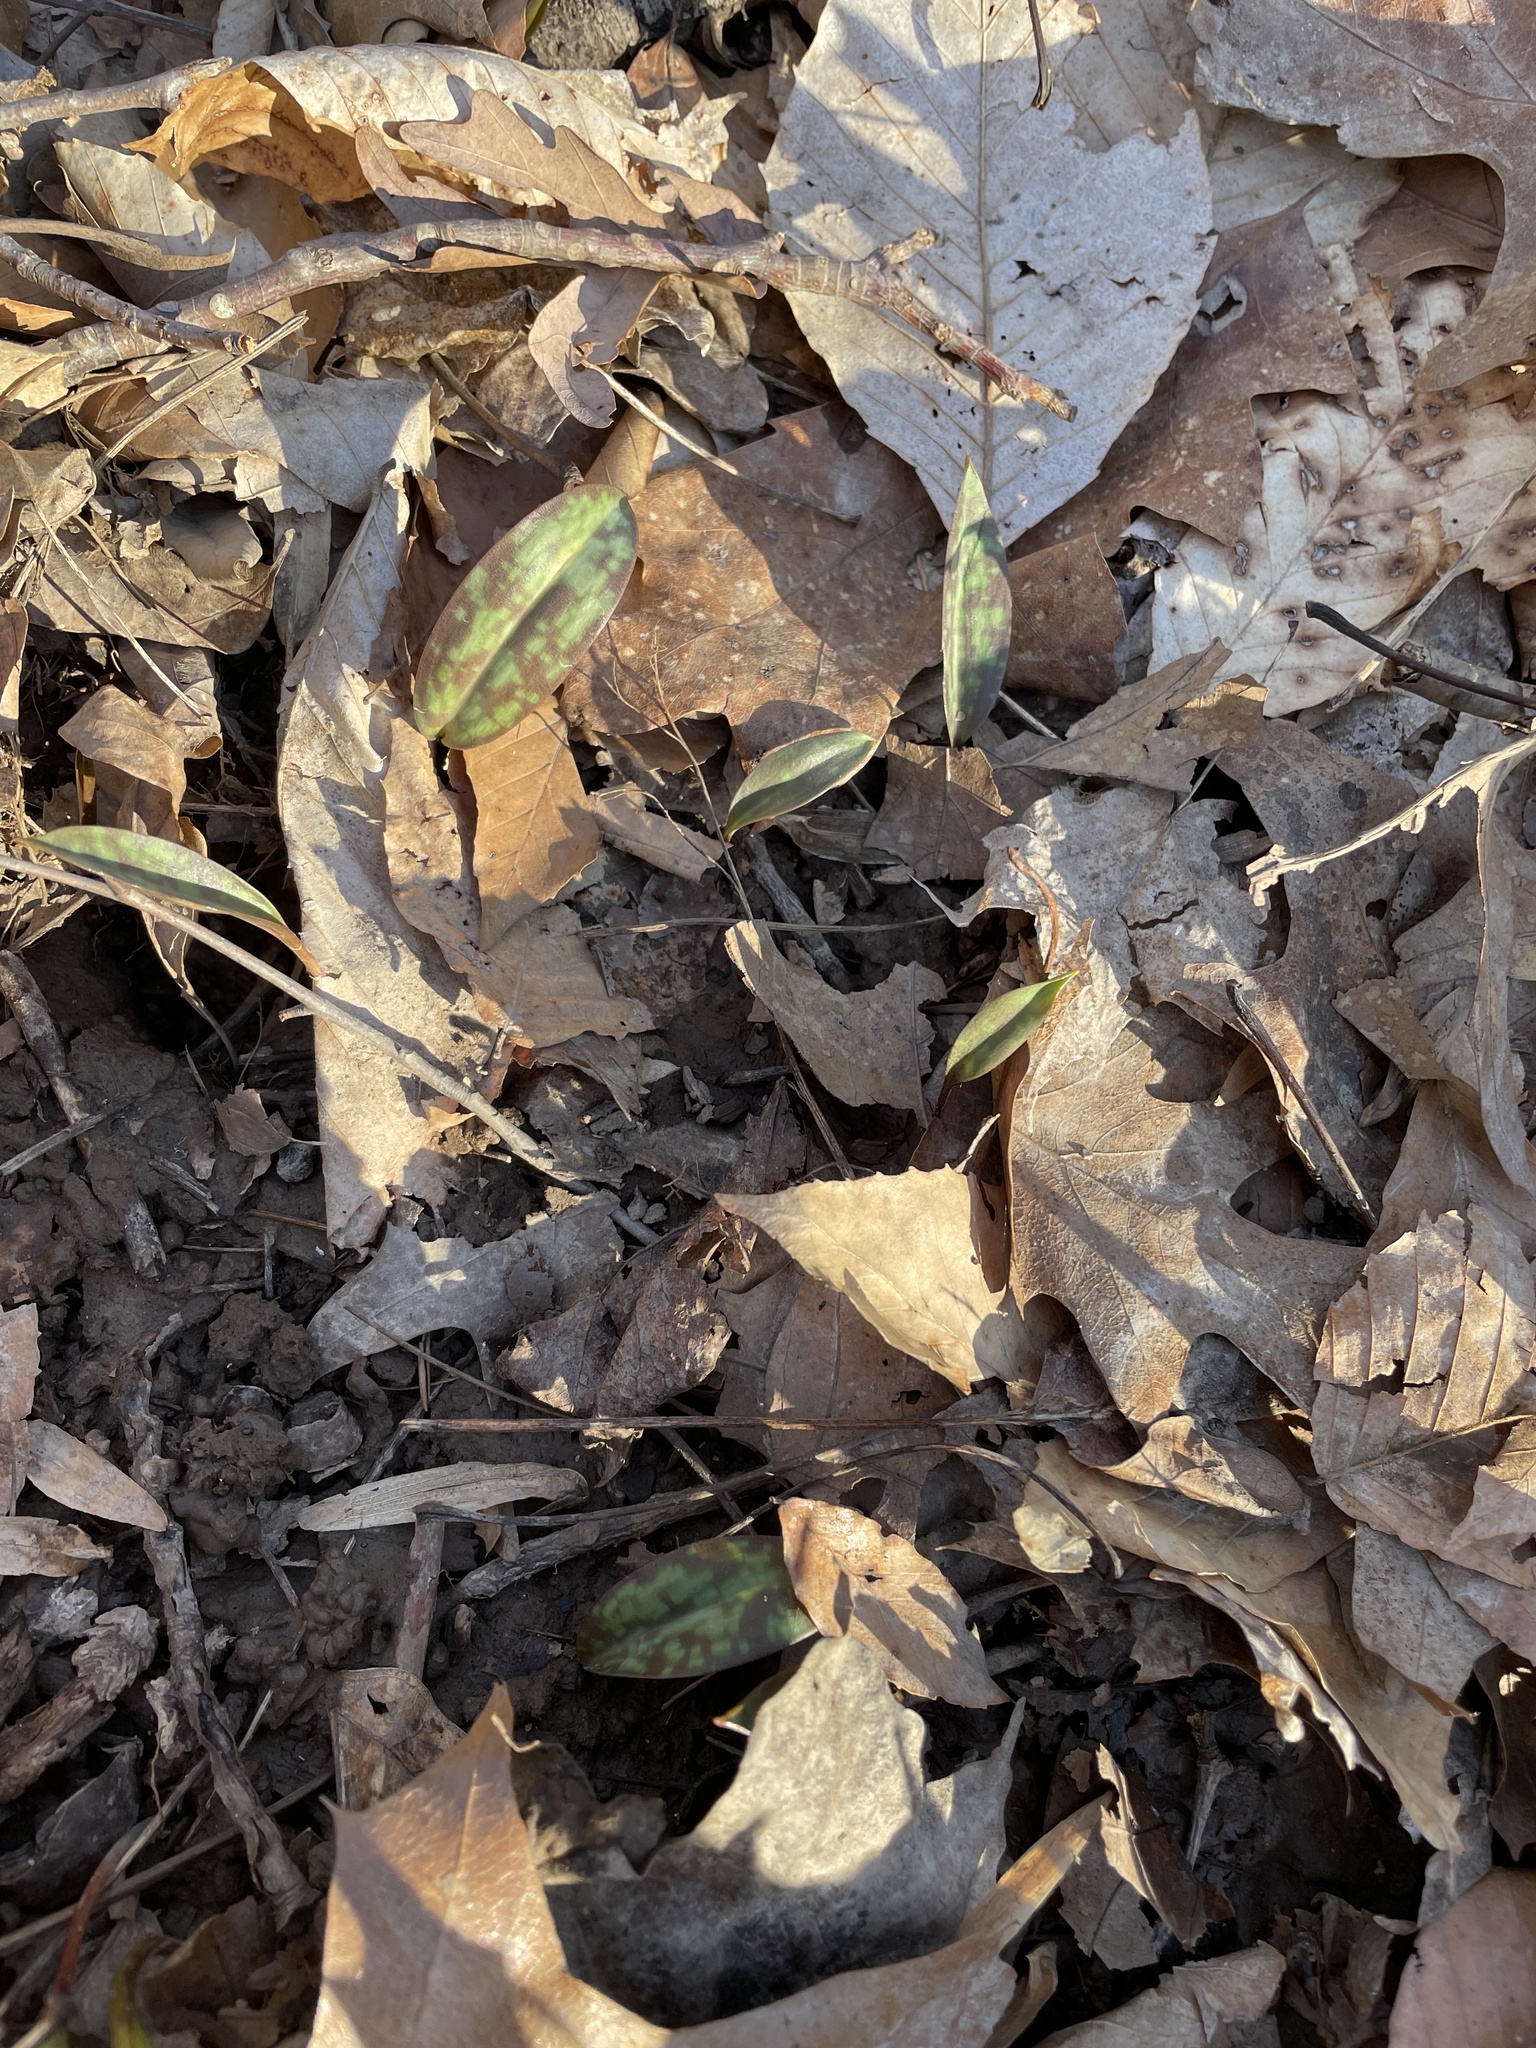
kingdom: Plantae
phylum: Tracheophyta
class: Liliopsida
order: Liliales
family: Liliaceae
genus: Erythronium
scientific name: Erythronium americanum
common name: Yellow adder's-tongue
